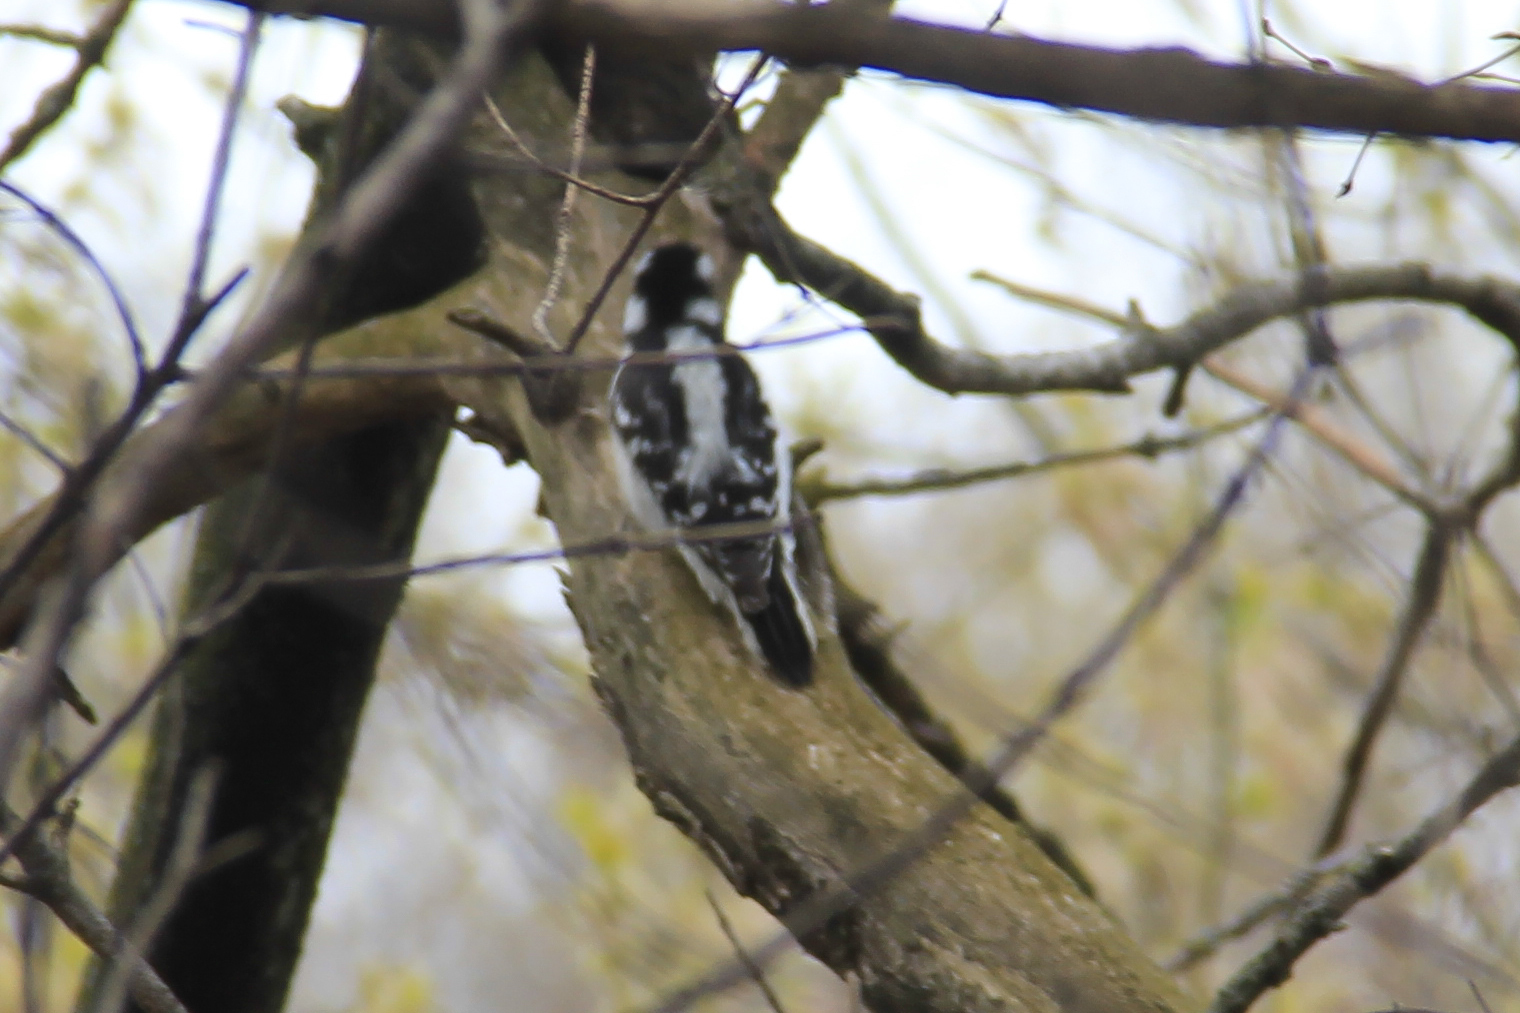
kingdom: Animalia
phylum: Chordata
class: Aves
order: Piciformes
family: Picidae
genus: Dryobates
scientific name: Dryobates pubescens
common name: Downy woodpecker
